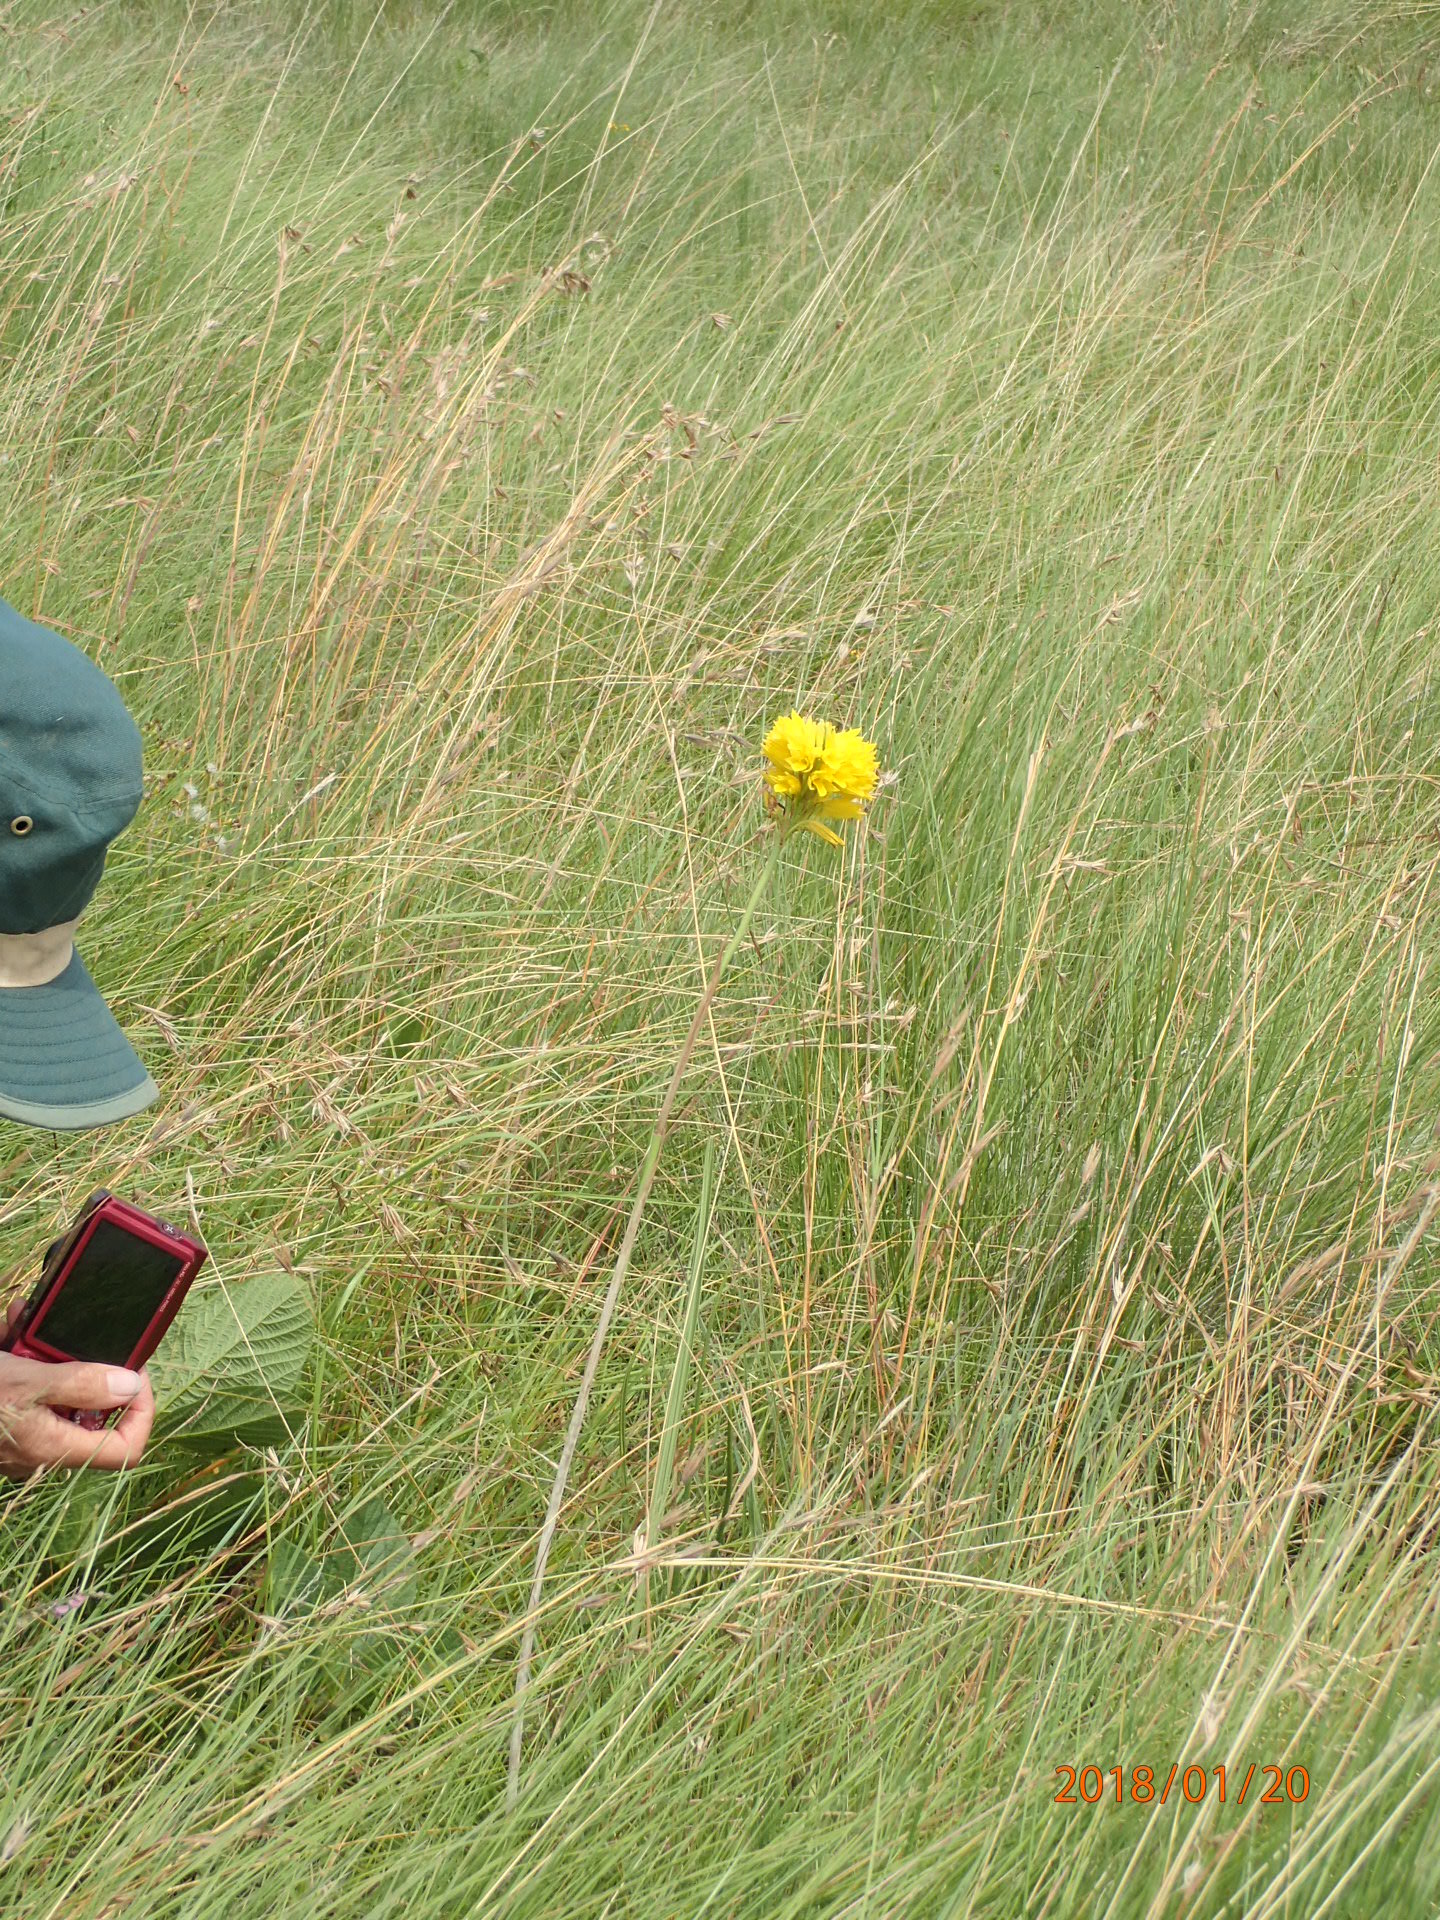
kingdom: Plantae
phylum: Tracheophyta
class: Liliopsida
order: Asparagales
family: Orchidaceae
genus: Eulophia
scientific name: Eulophia ensata
